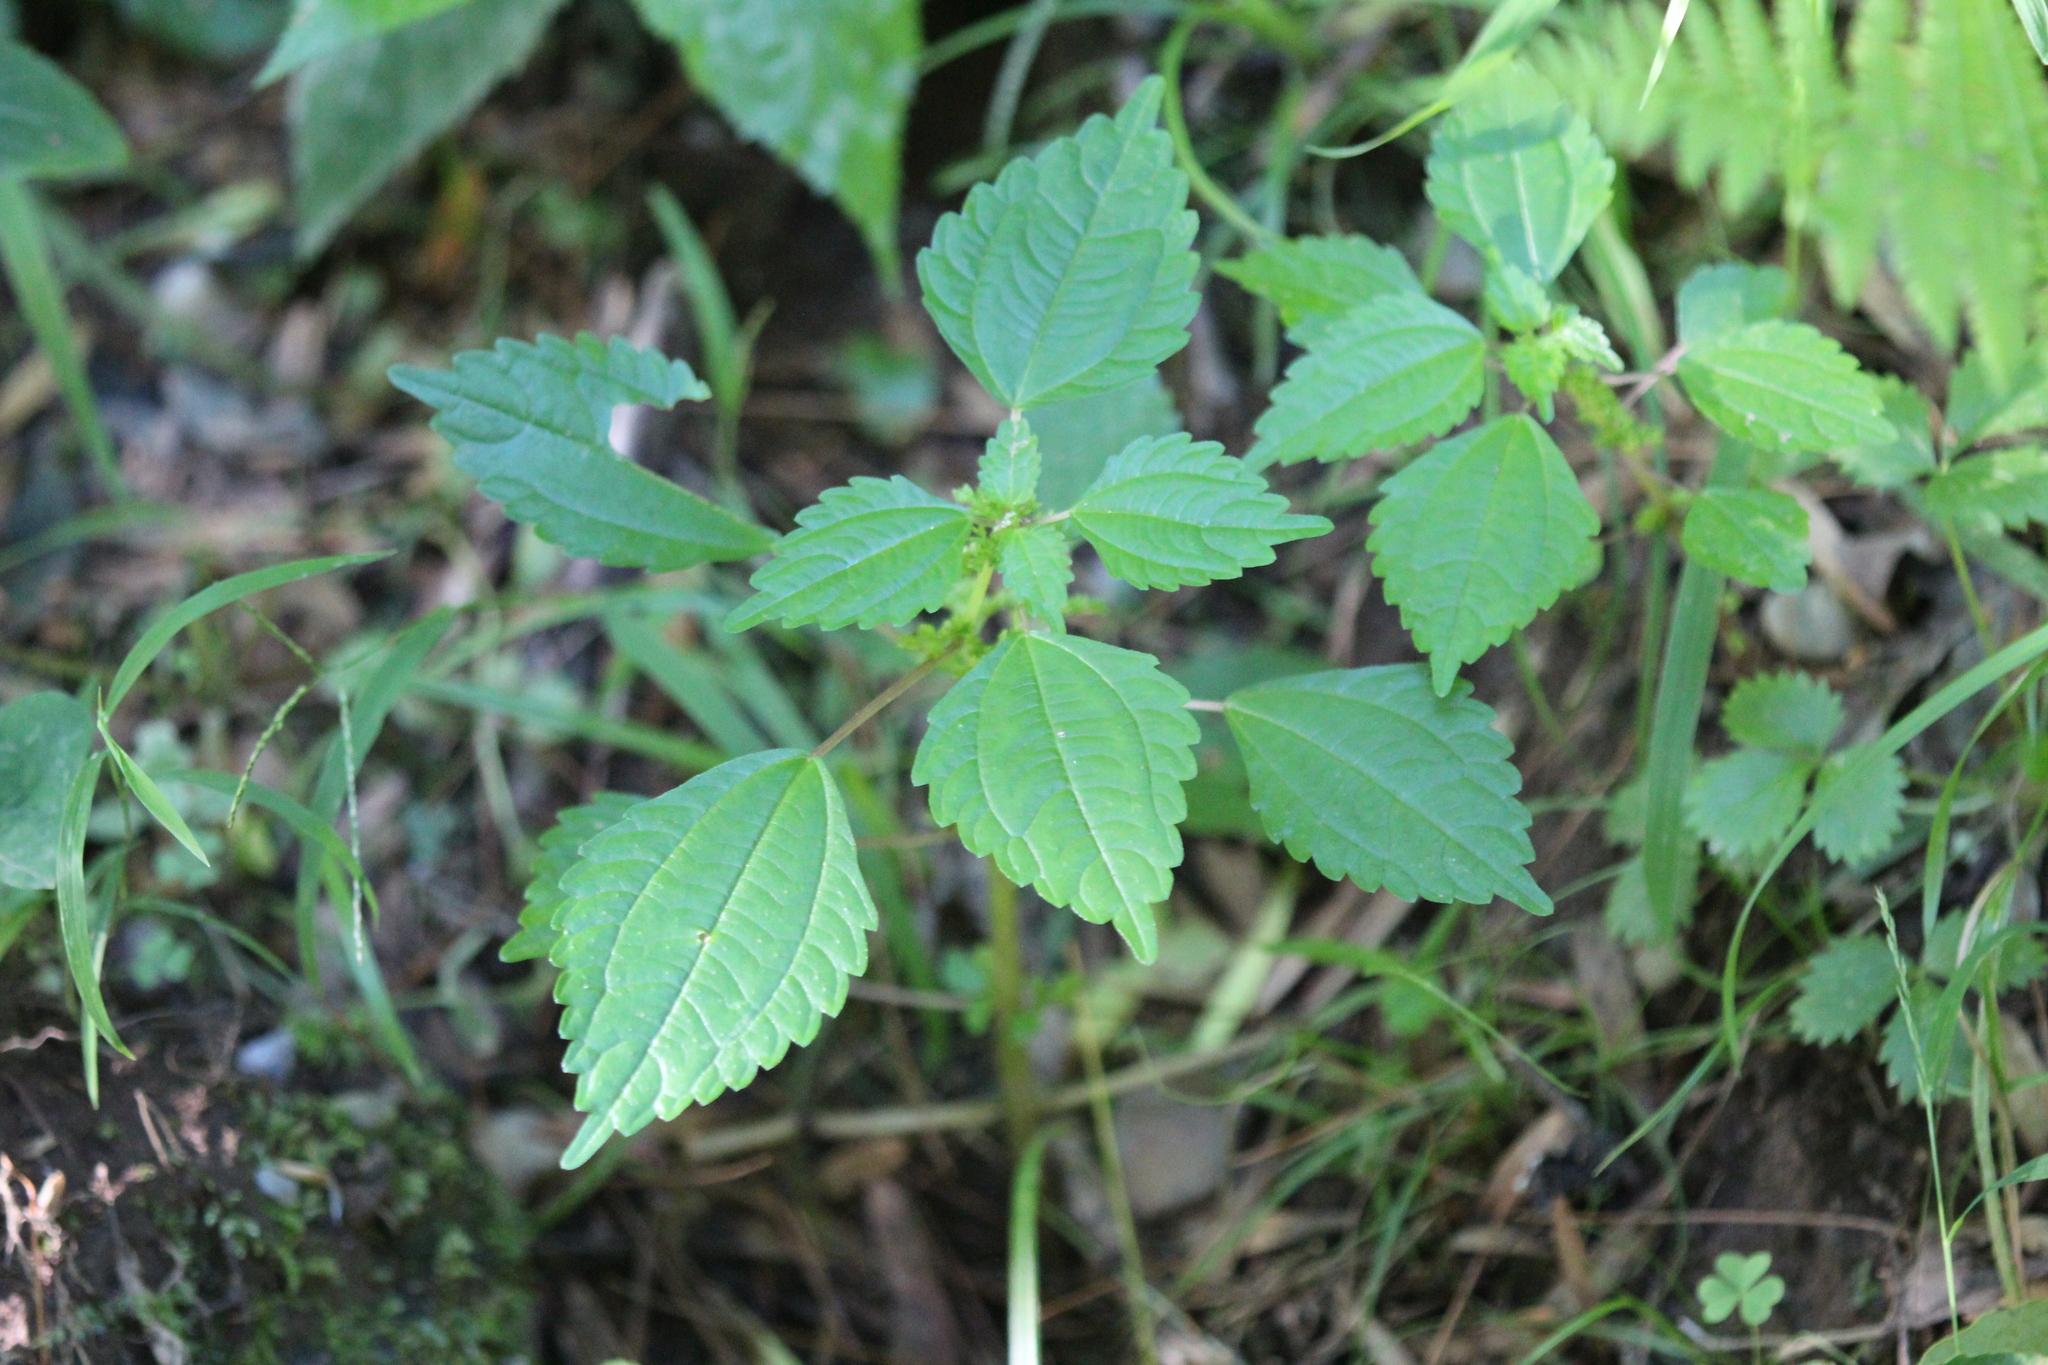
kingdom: Plantae
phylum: Tracheophyta
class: Magnoliopsida
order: Rosales
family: Urticaceae
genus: Pilea
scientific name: Pilea pumila
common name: Clearweed
